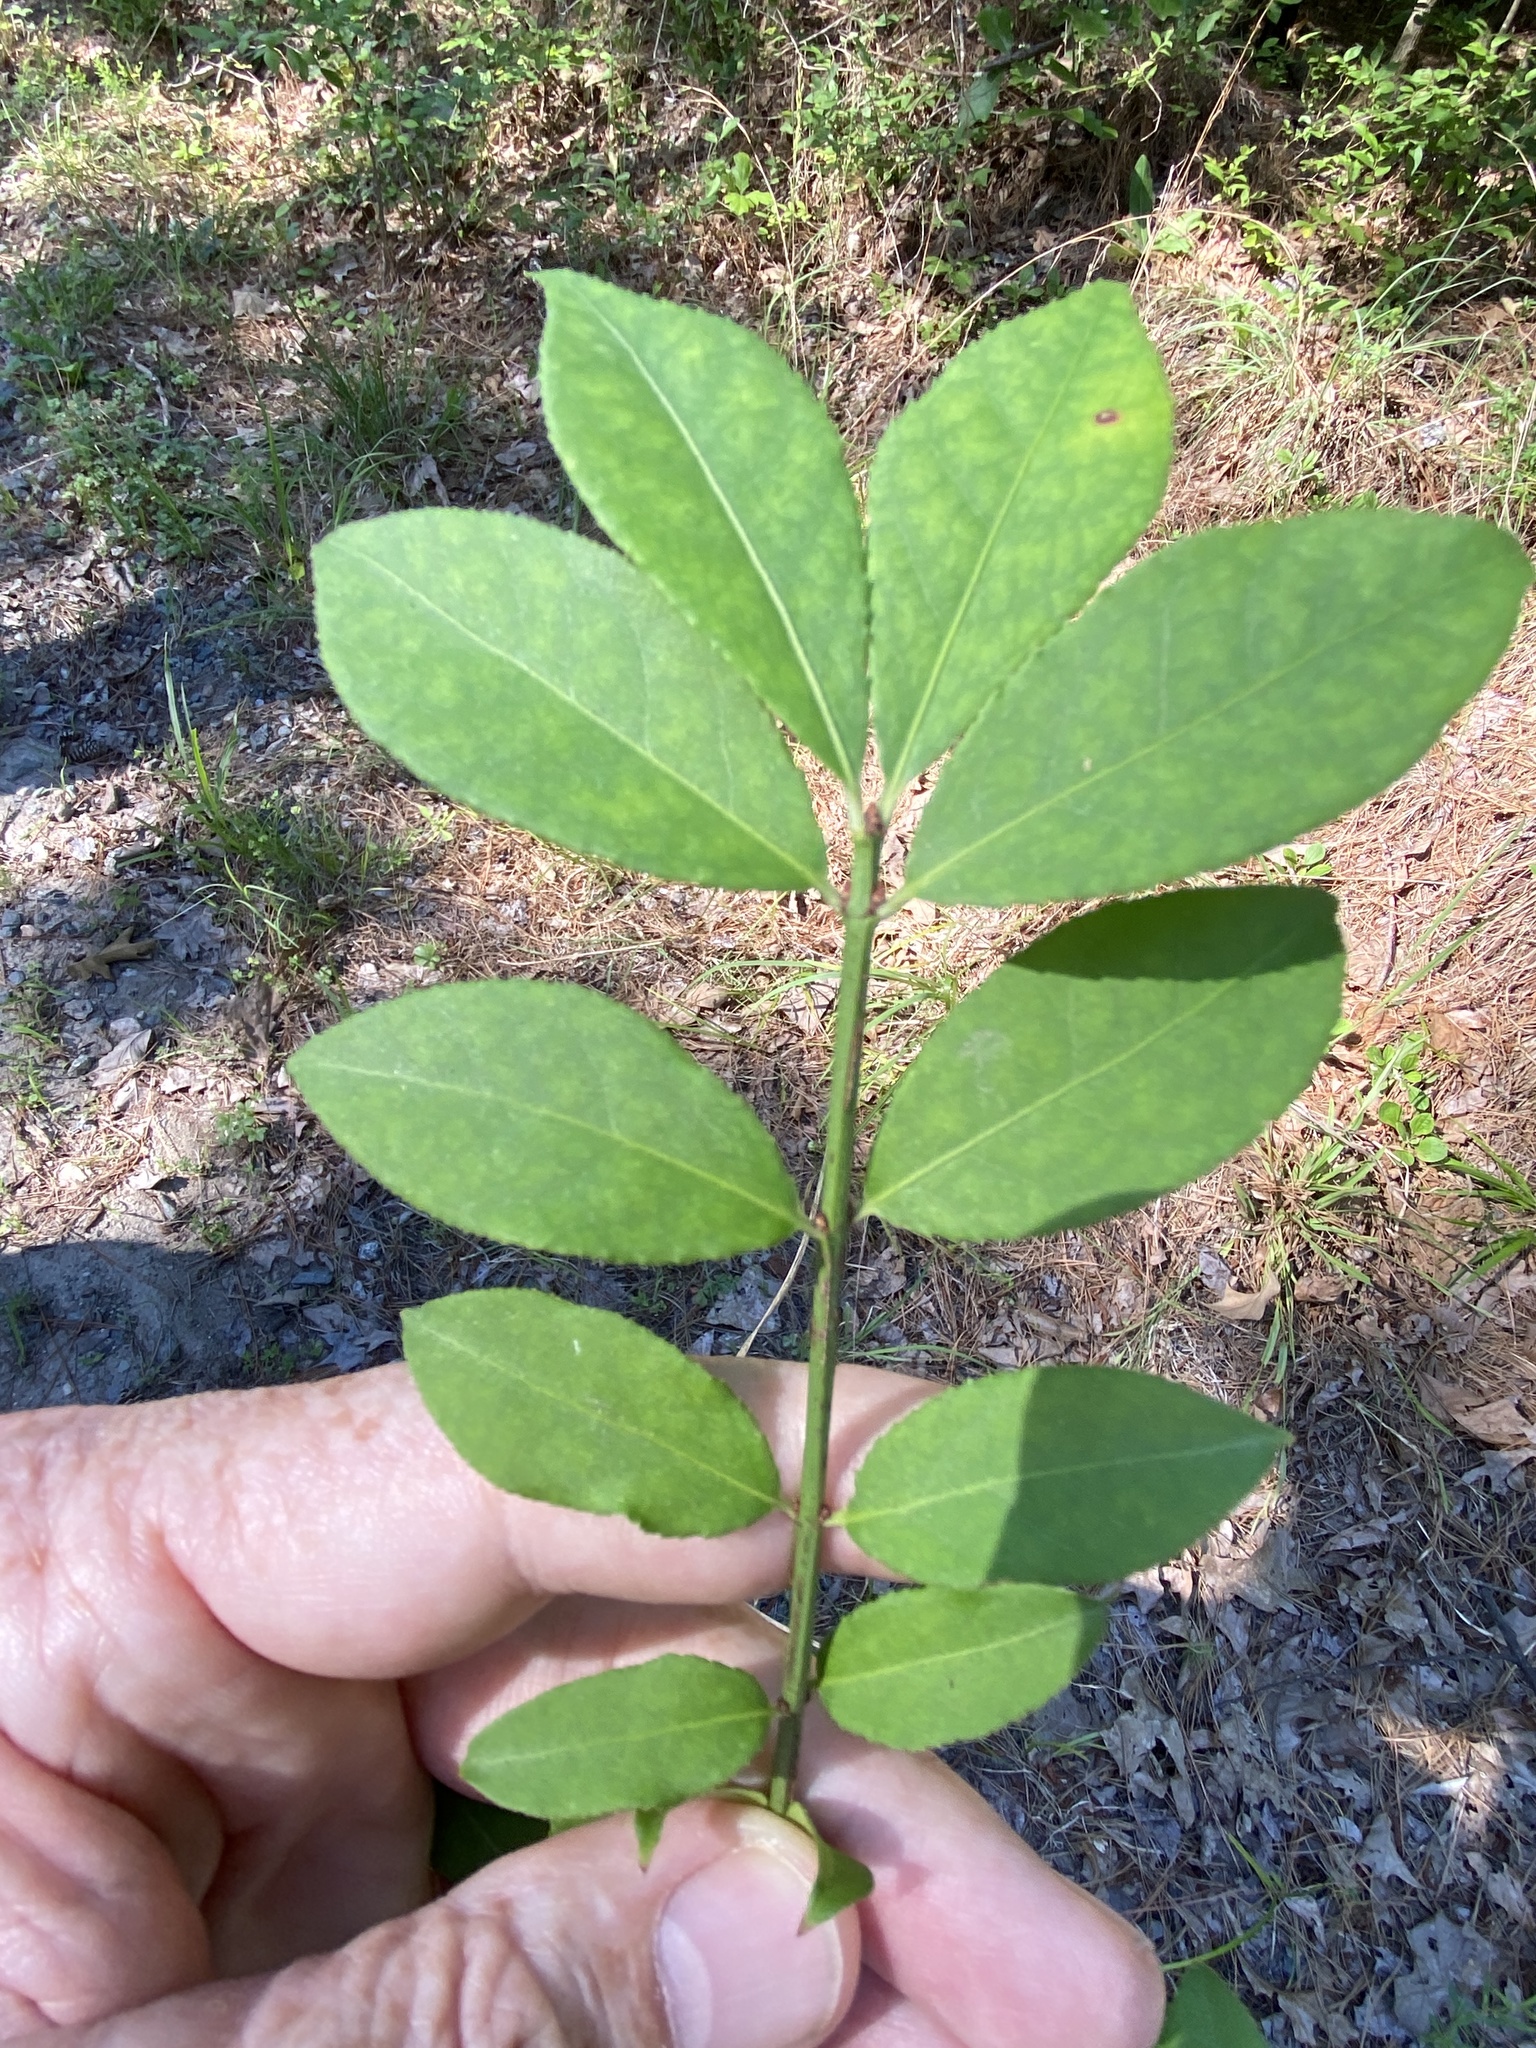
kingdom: Plantae
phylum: Tracheophyta
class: Magnoliopsida
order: Celastrales
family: Celastraceae
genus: Euonymus
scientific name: Euonymus alatus
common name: Winged euonymus
